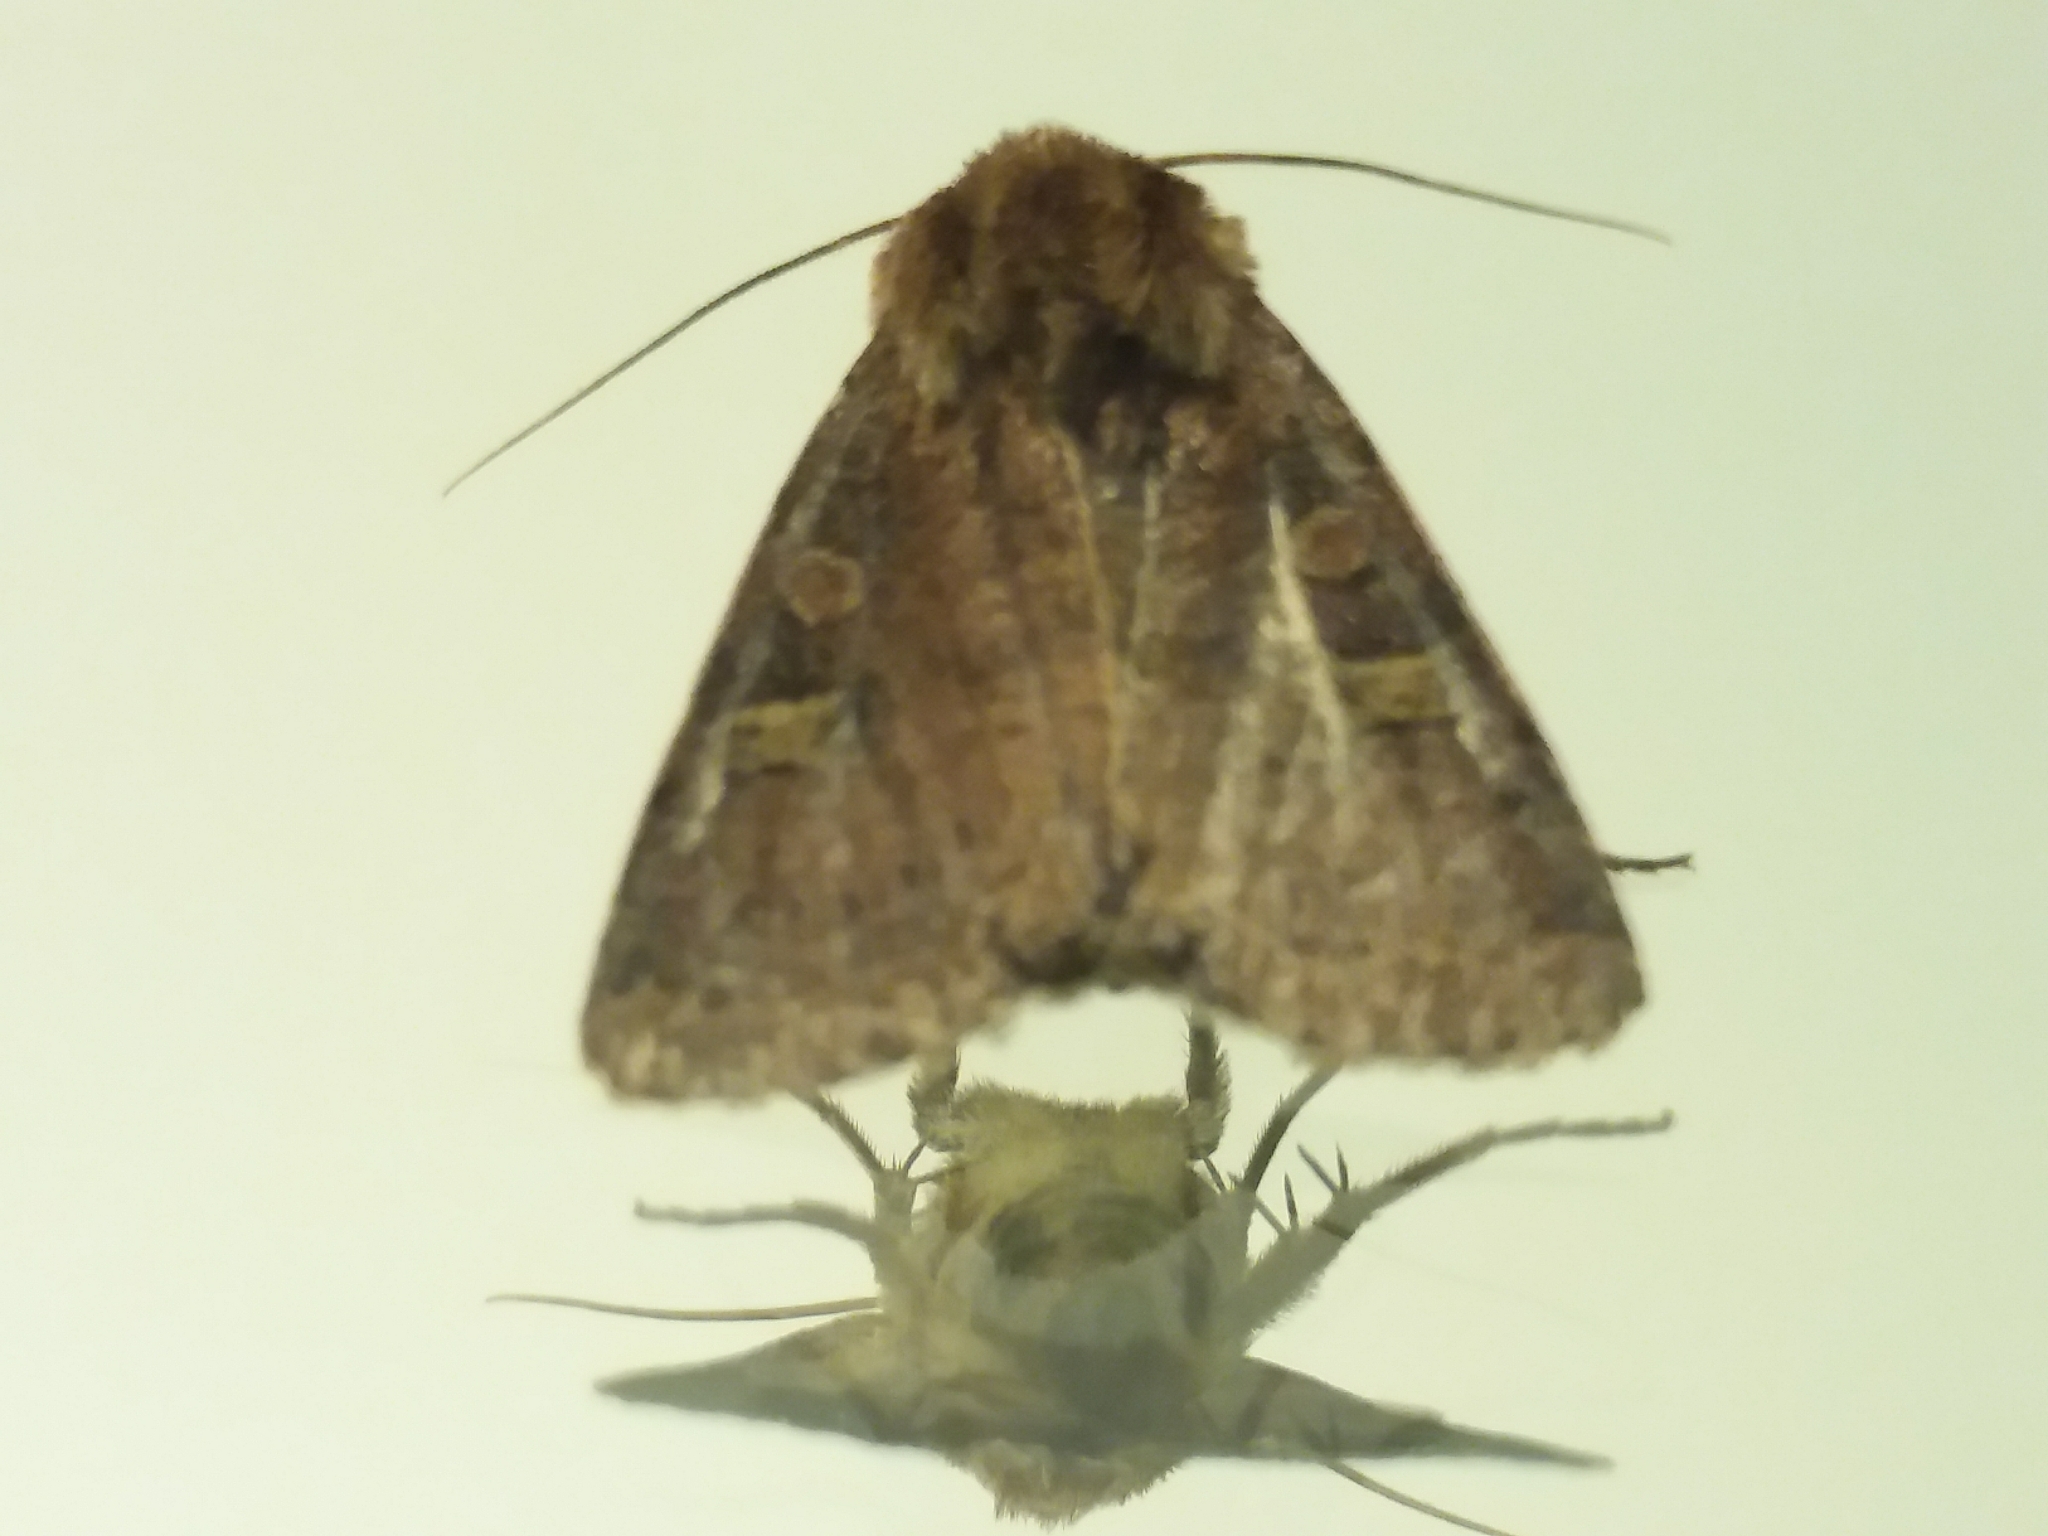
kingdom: Animalia
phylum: Arthropoda
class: Insecta
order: Lepidoptera
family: Noctuidae
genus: Xestia
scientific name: Xestia xanthographa
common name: Square-spot rustic
